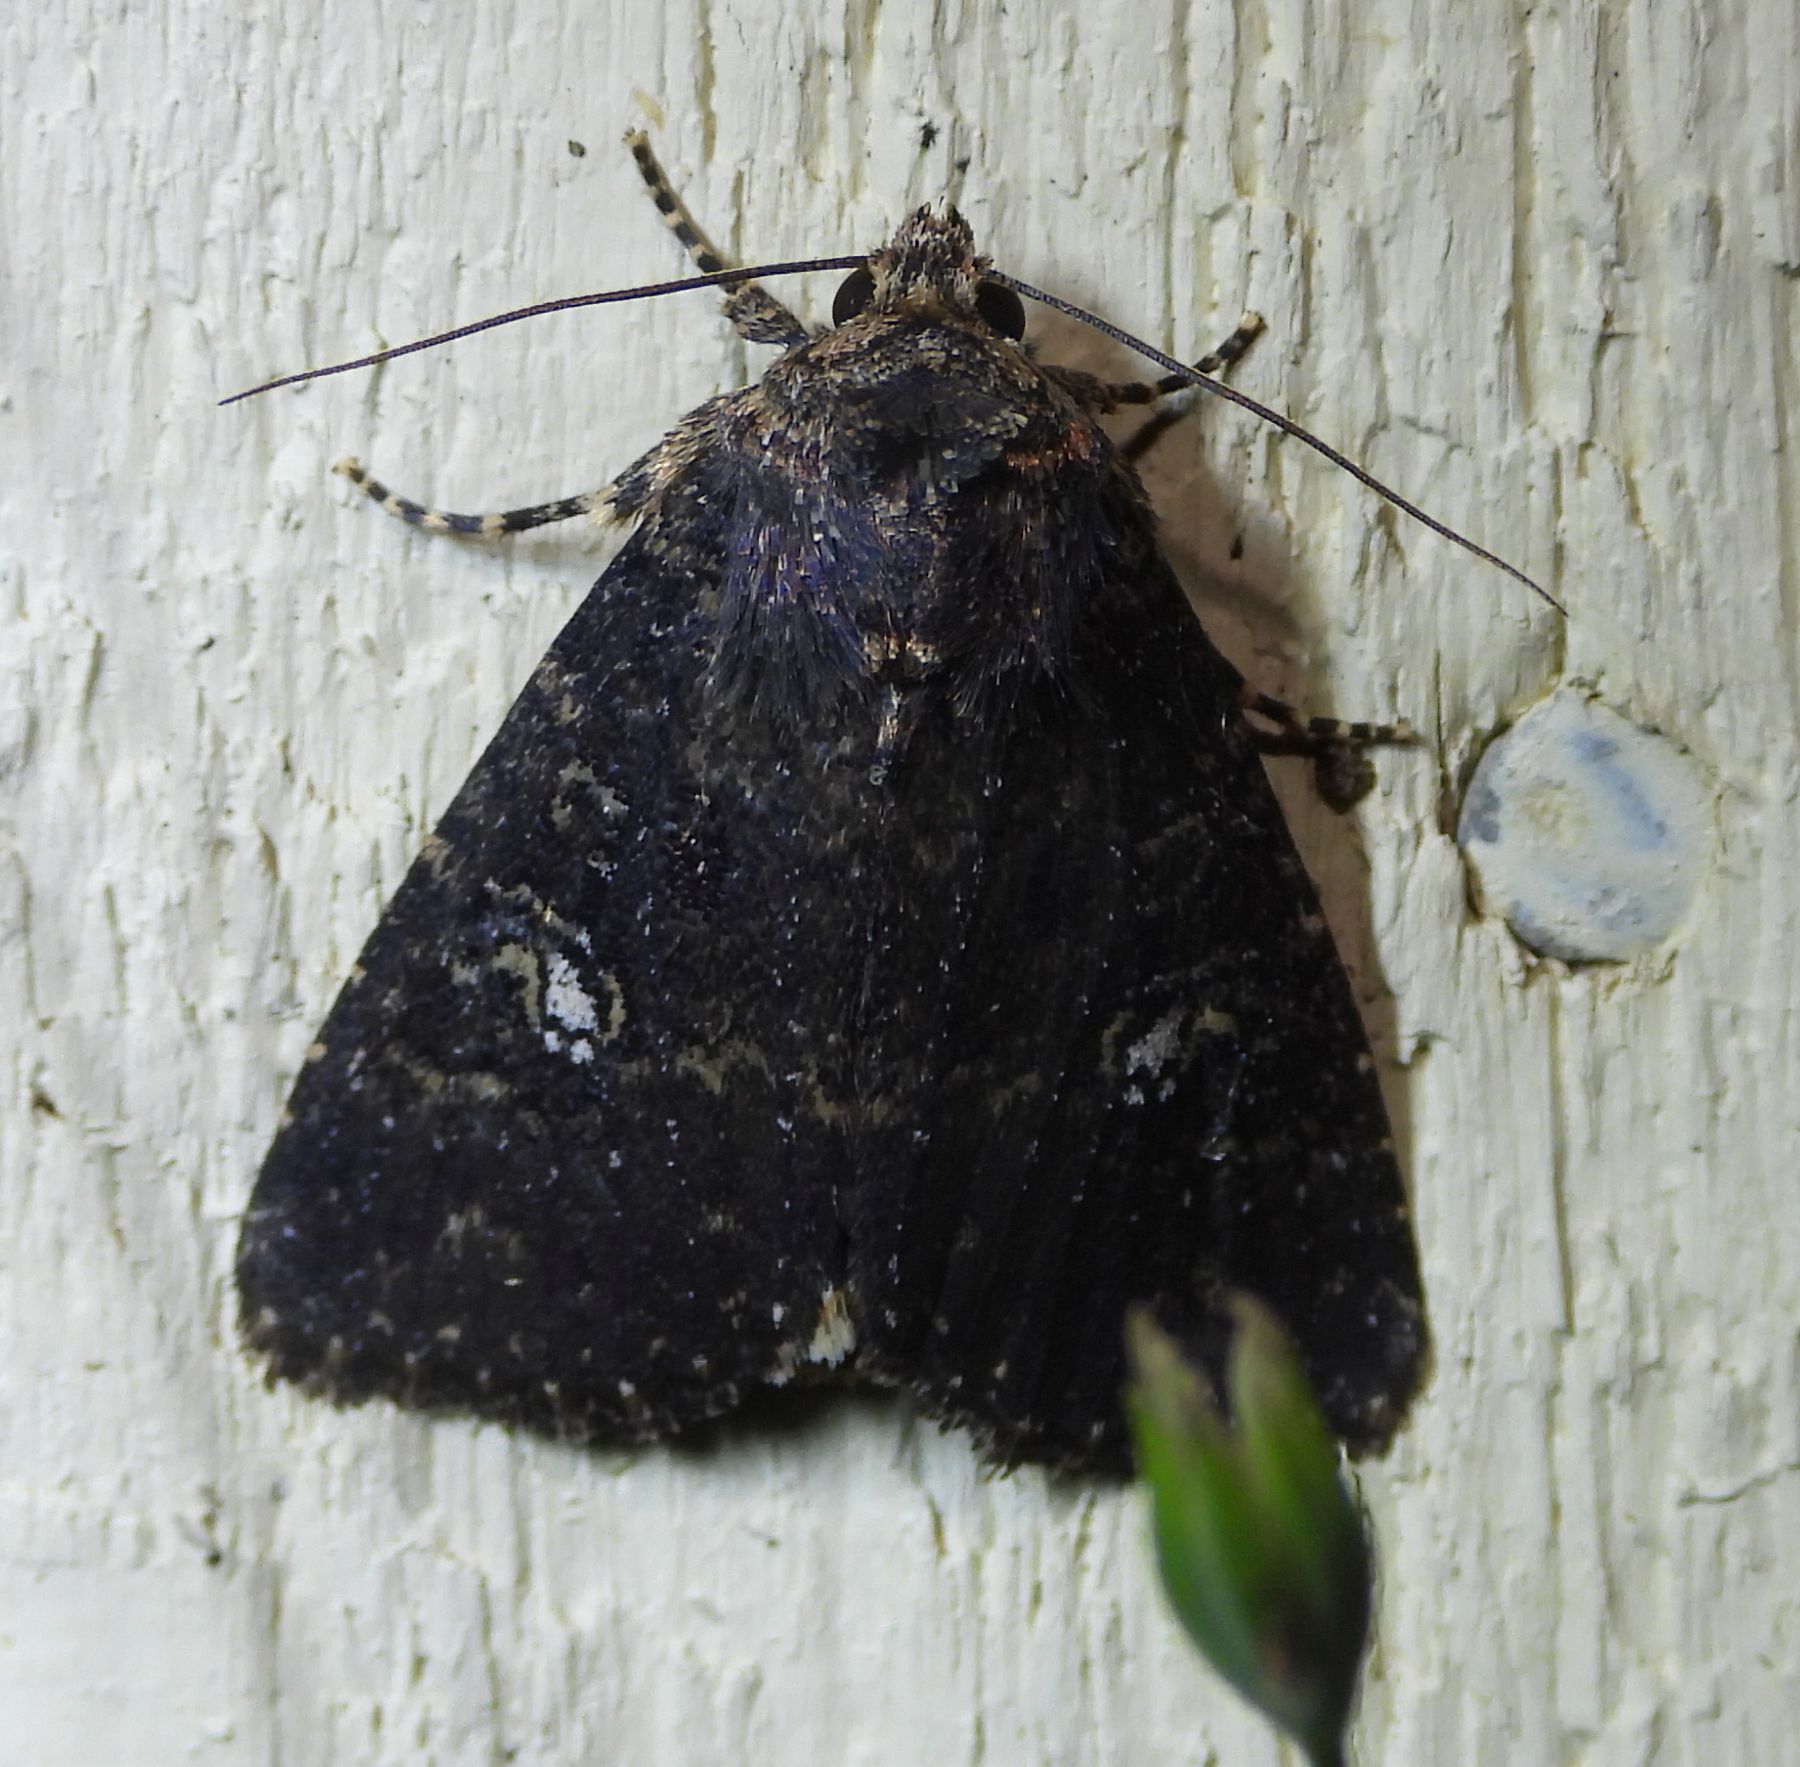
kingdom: Animalia
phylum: Arthropoda
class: Insecta
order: Lepidoptera
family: Noctuidae
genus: Condica
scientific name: Condica vecors
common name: Dusky groundling
